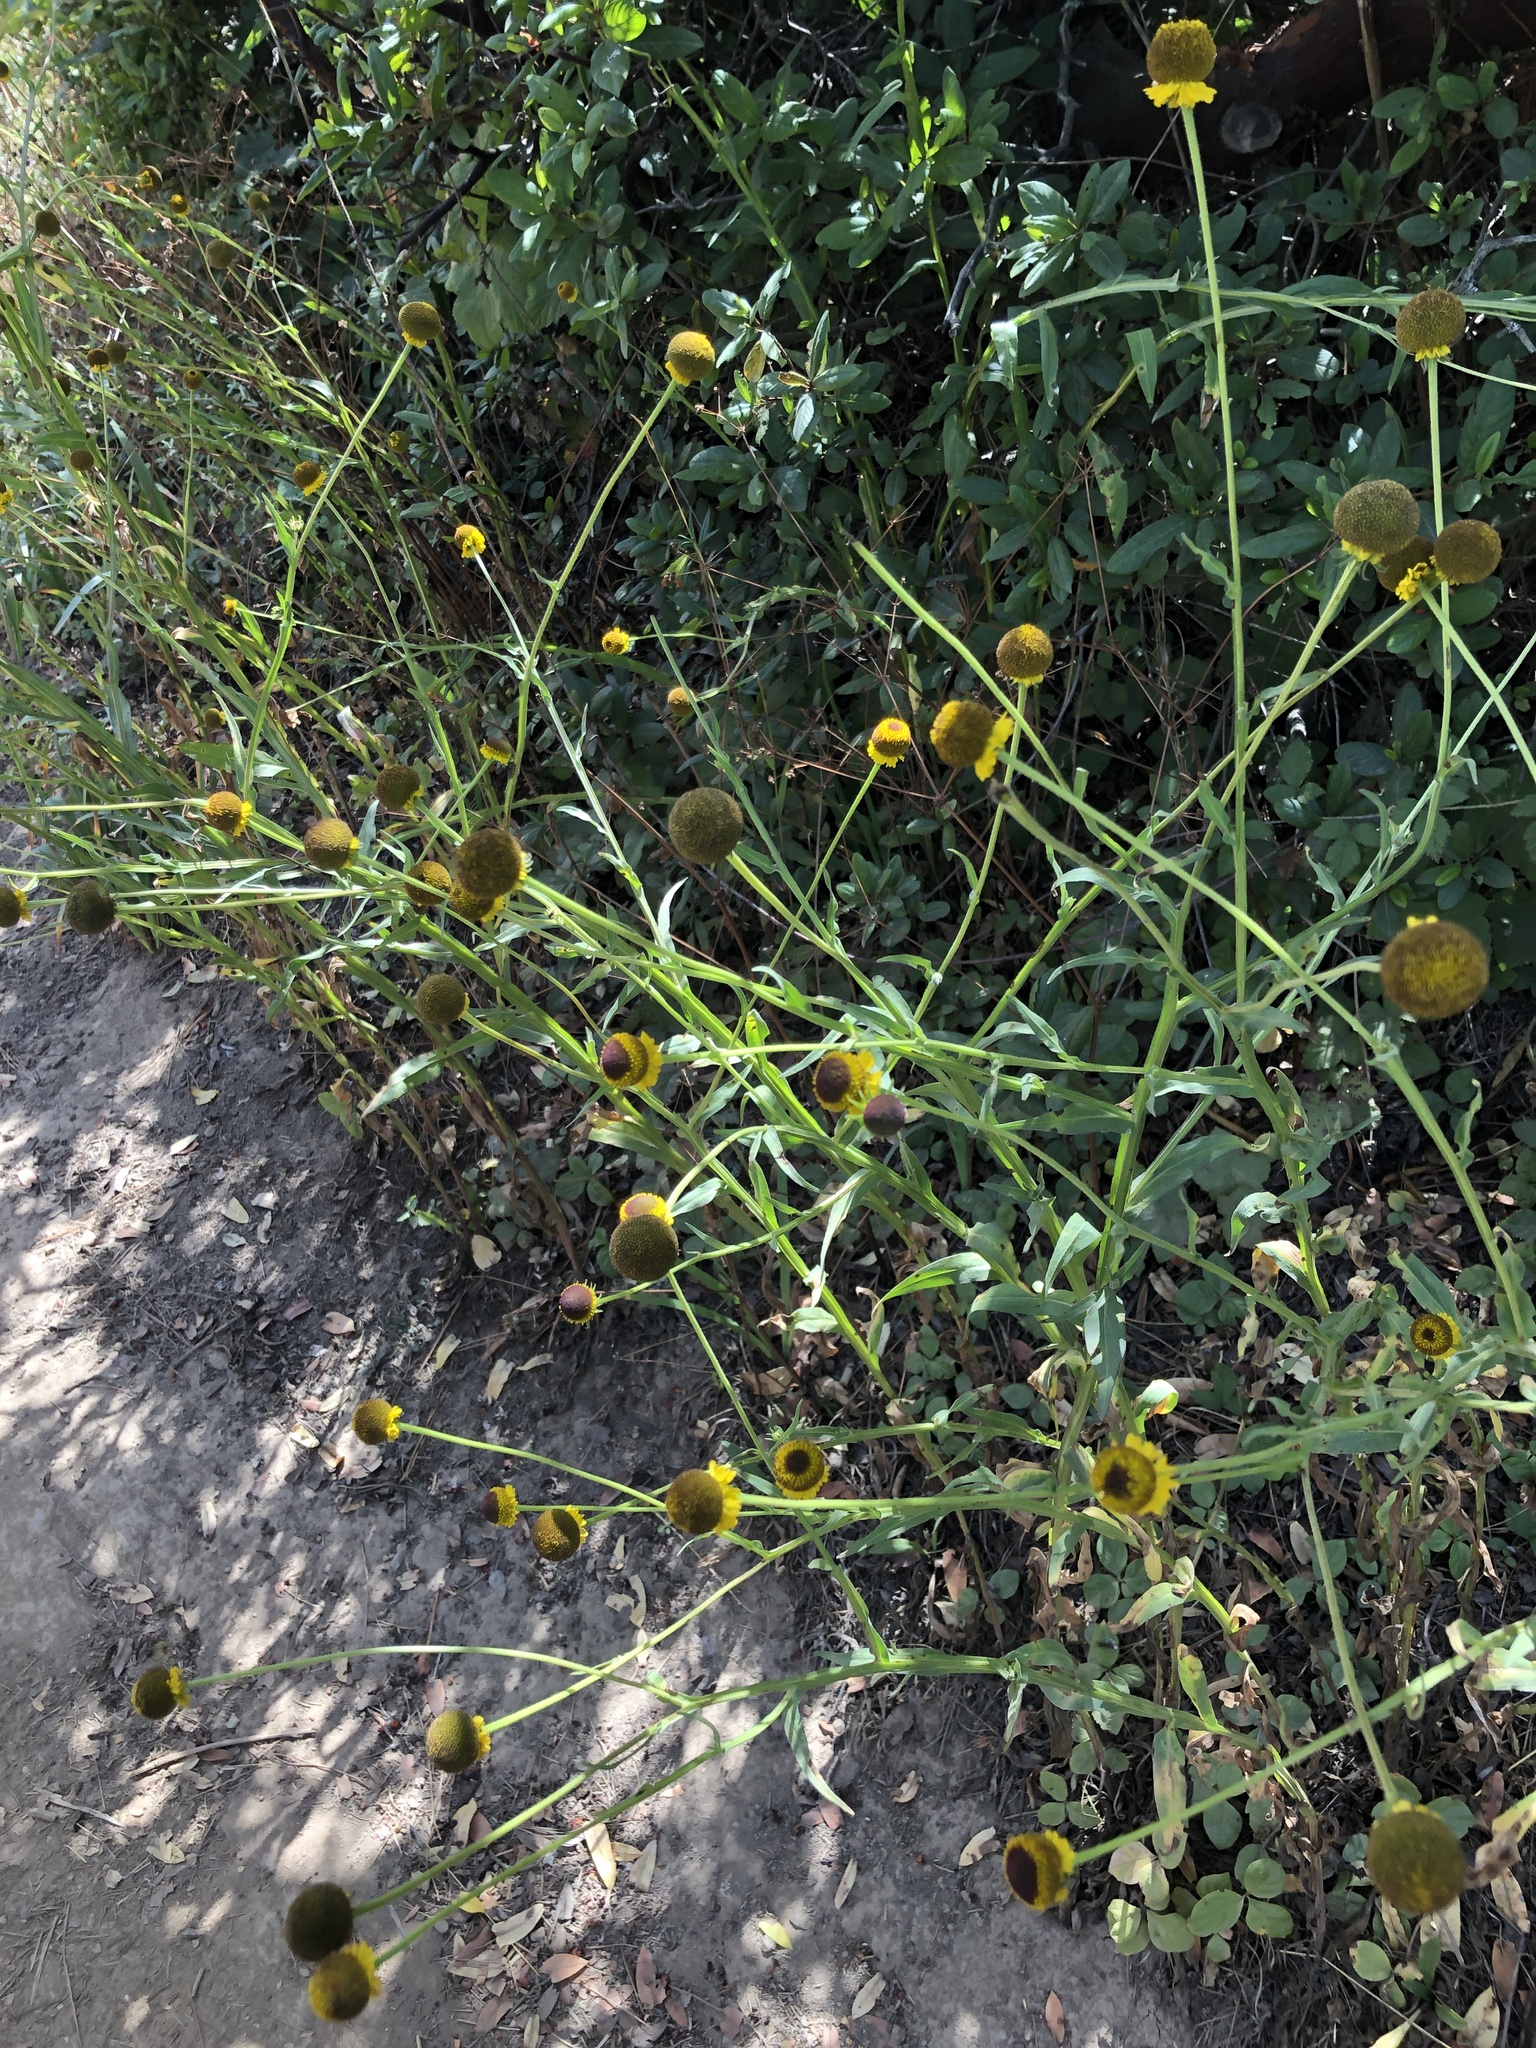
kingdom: Plantae
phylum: Tracheophyta
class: Magnoliopsida
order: Asterales
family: Asteraceae
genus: Helenium
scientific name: Helenium puberulum
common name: Sneezewort
